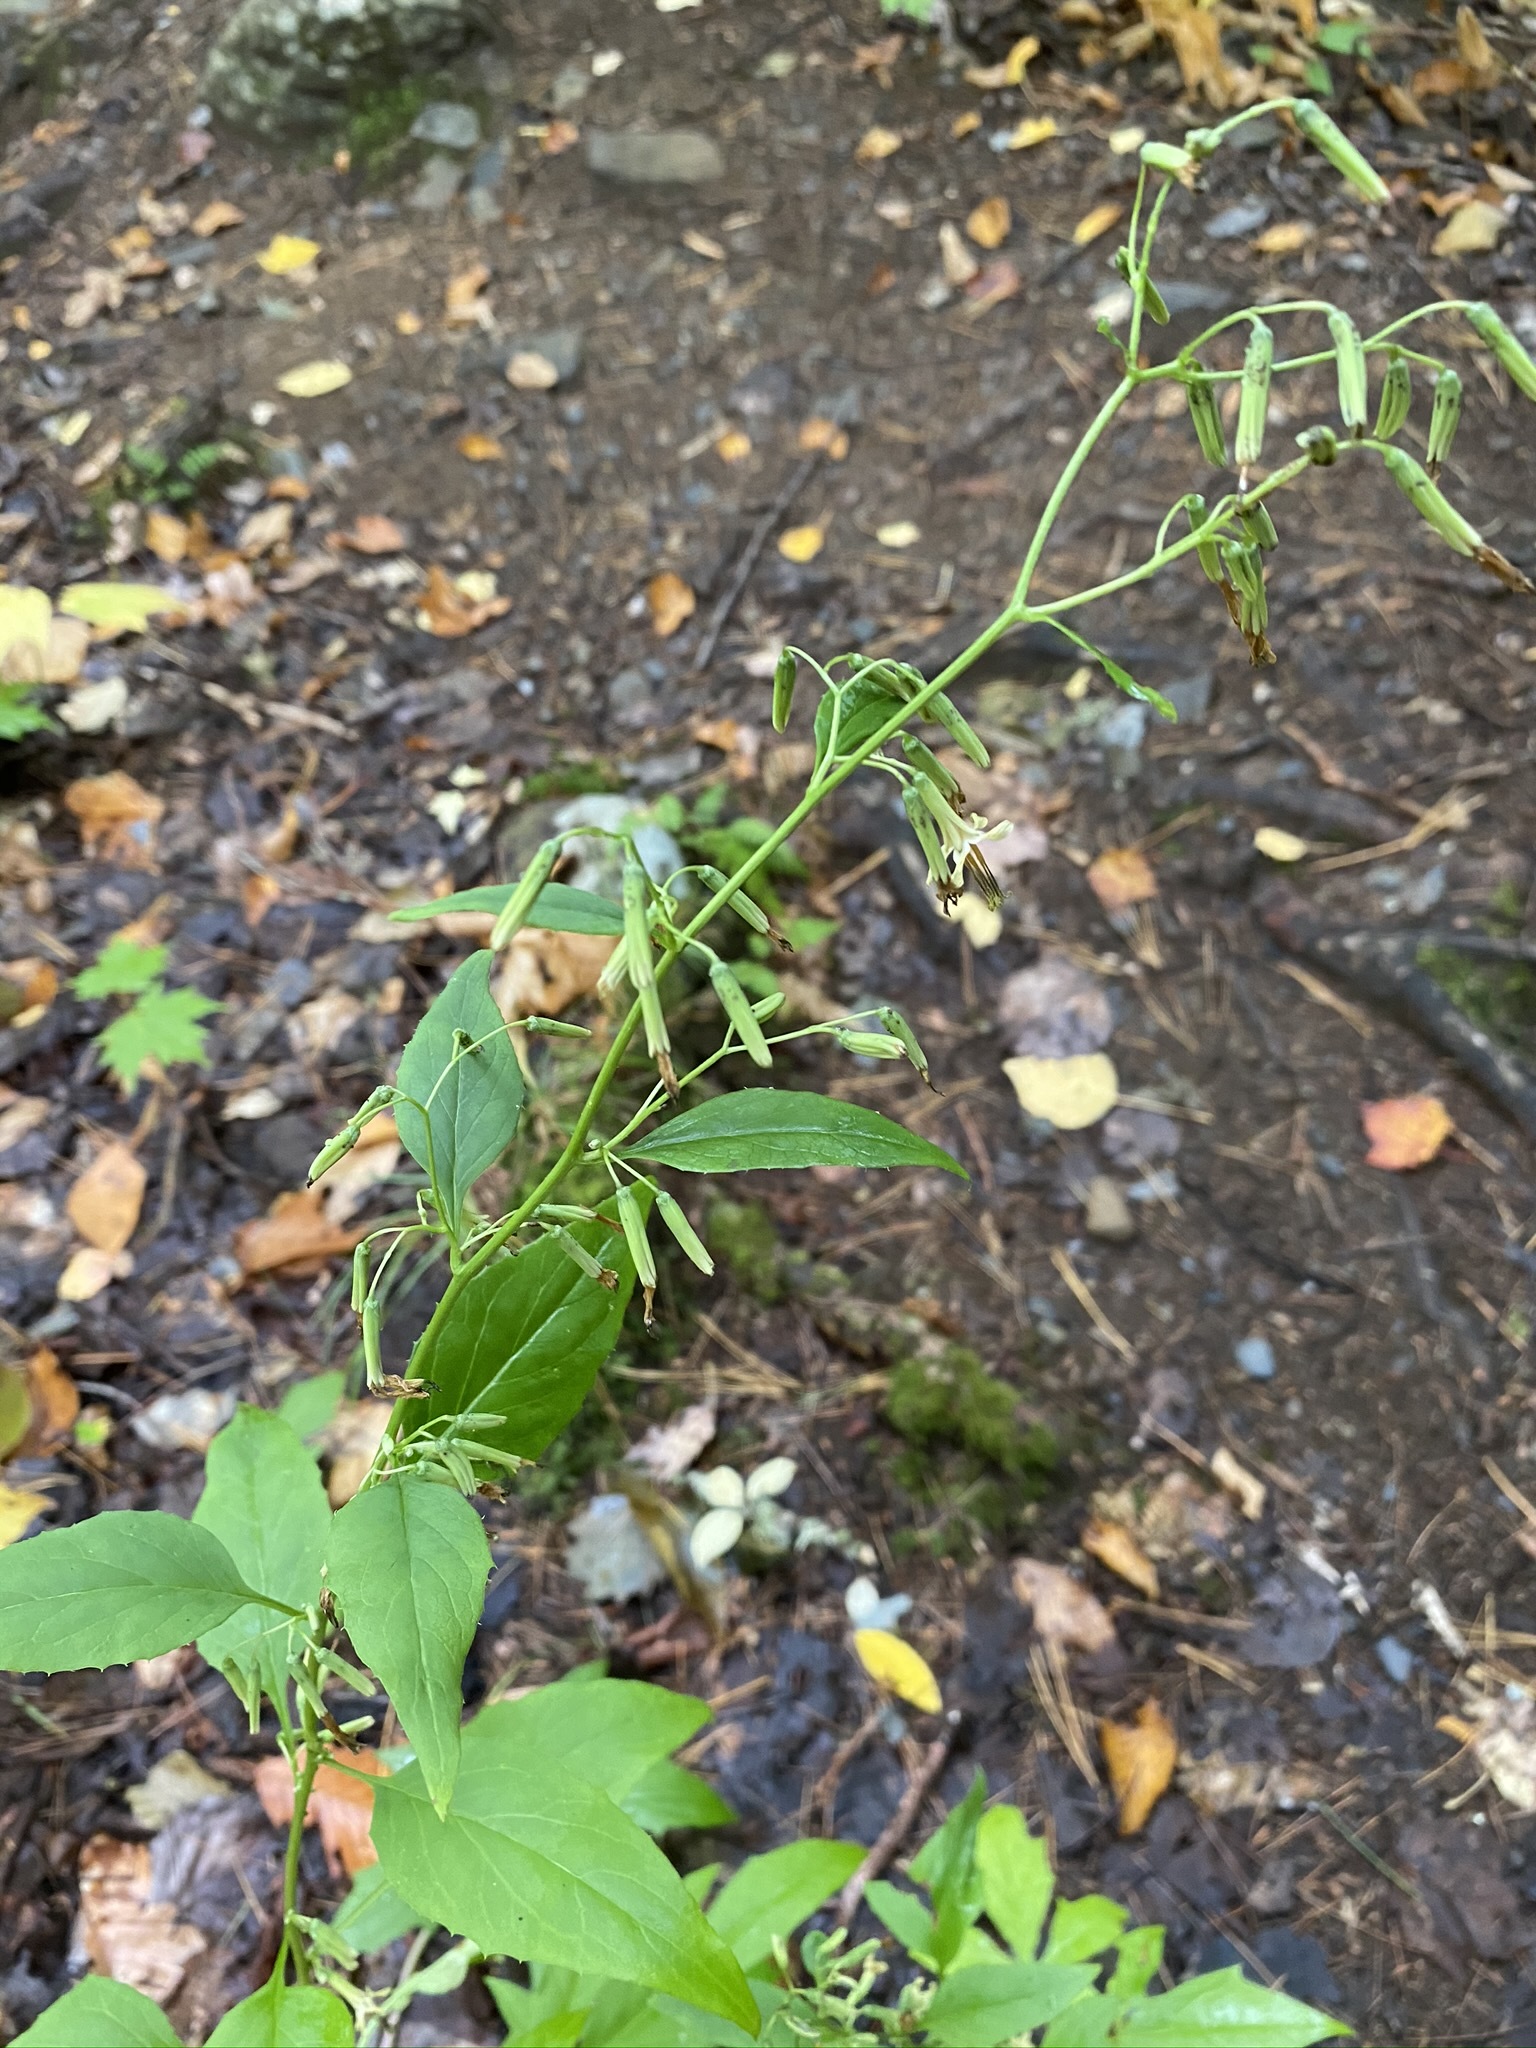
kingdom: Plantae
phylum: Tracheophyta
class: Magnoliopsida
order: Asterales
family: Asteraceae
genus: Nabalus
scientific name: Nabalus altissima
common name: Tall rattlesnakeroot
